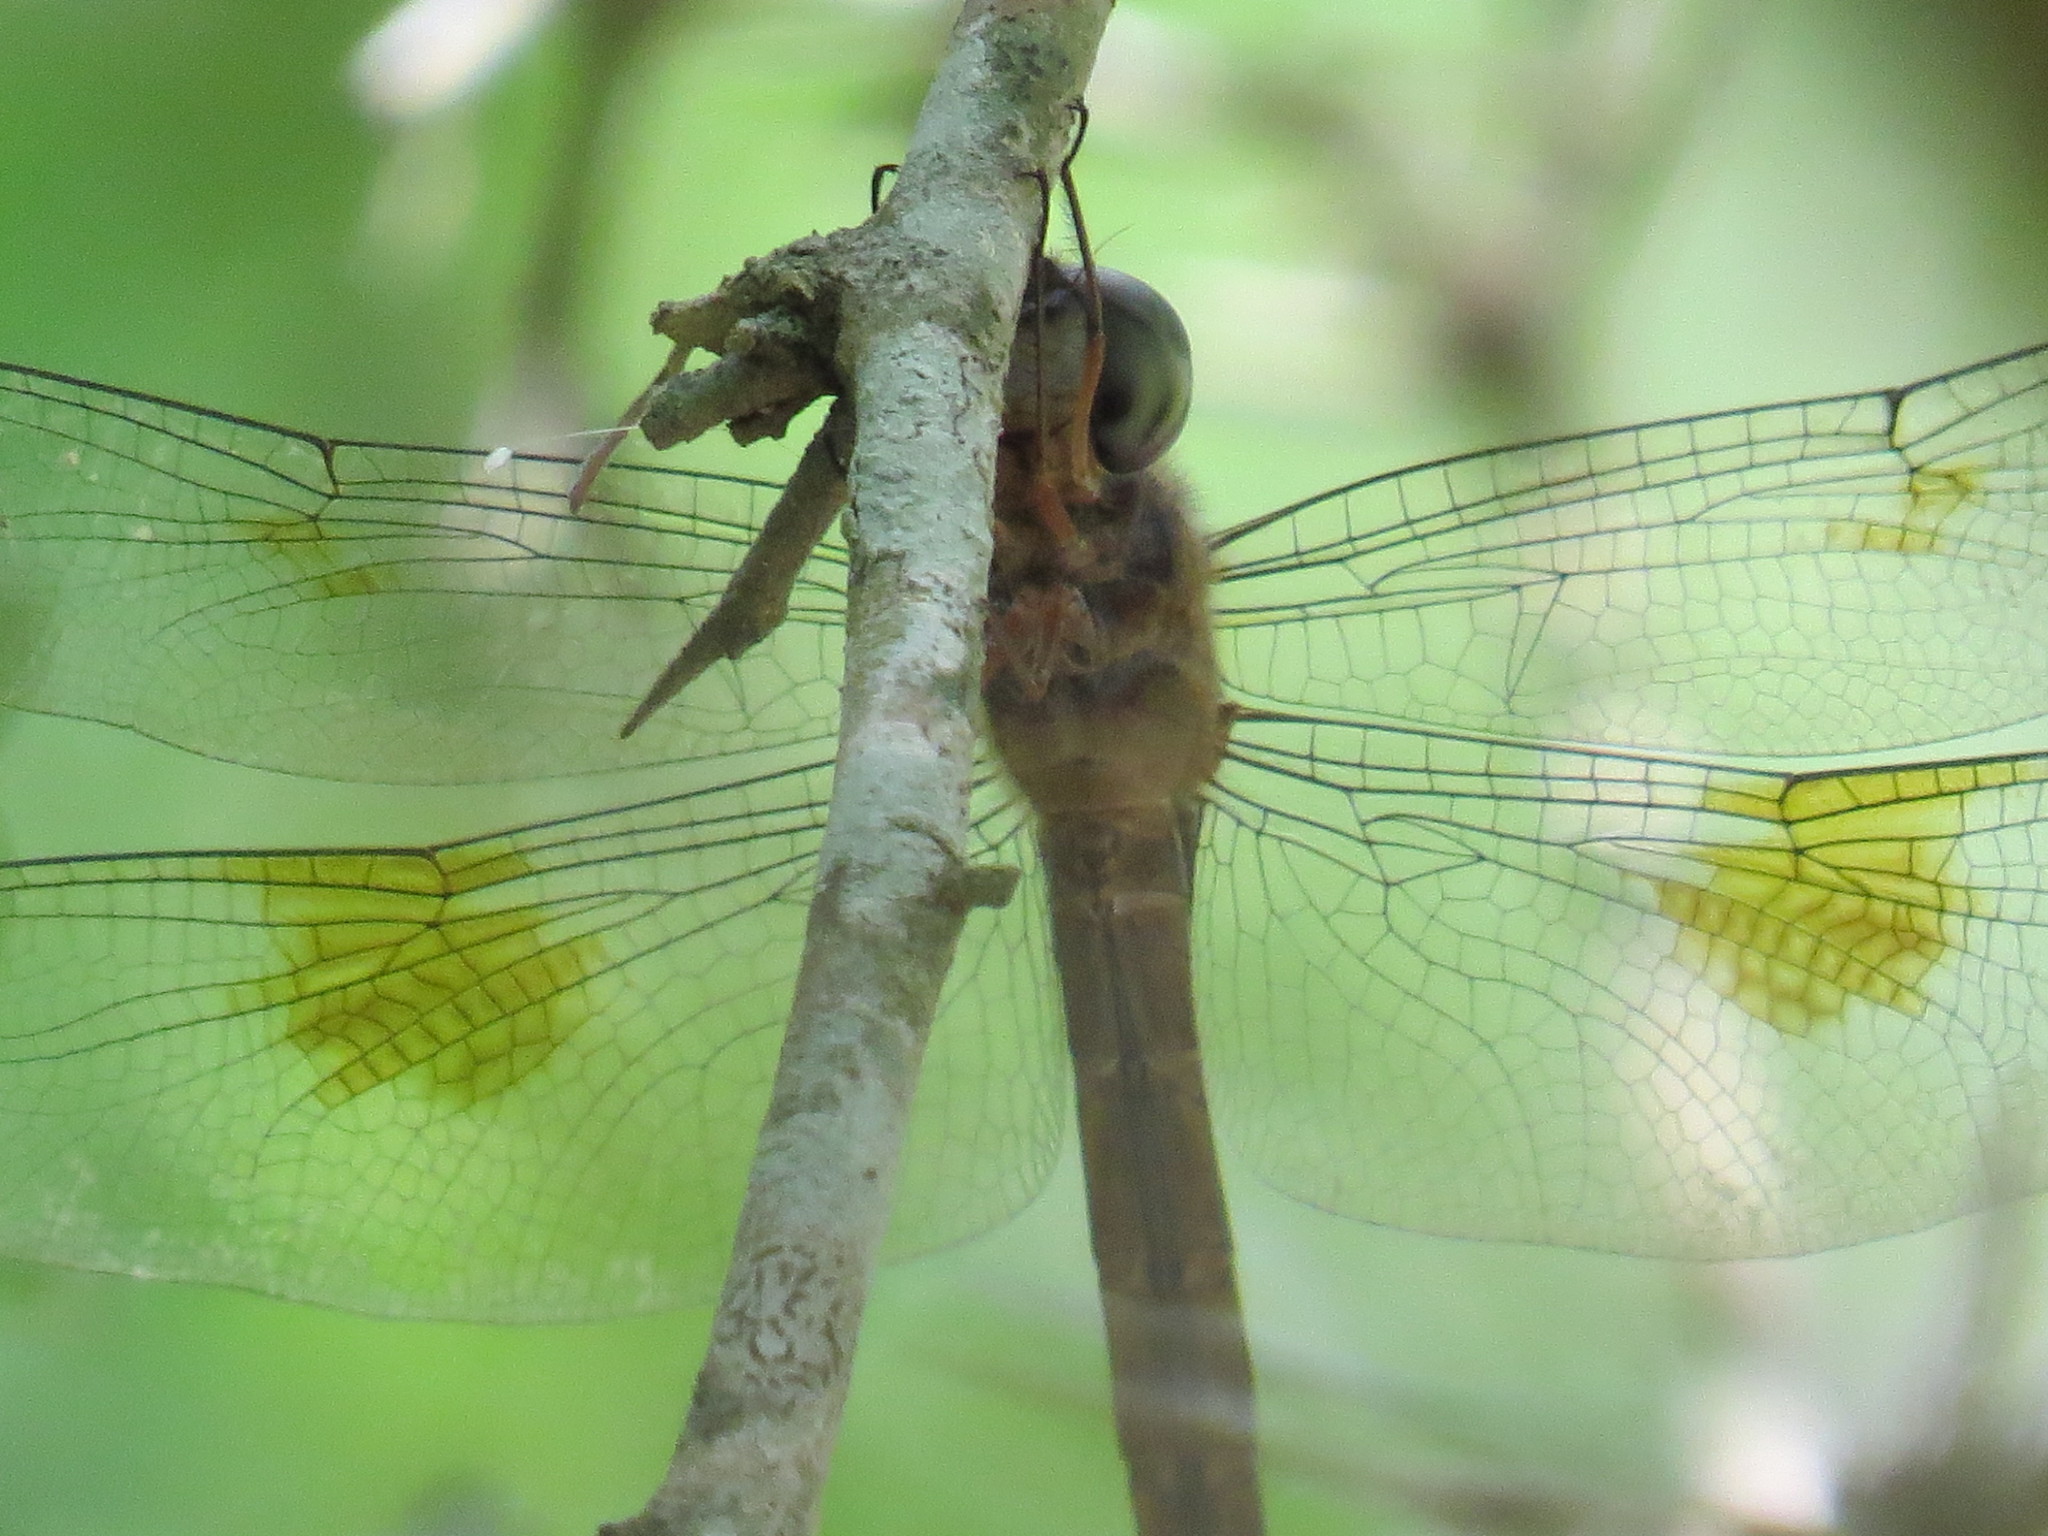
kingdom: Animalia
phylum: Arthropoda
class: Insecta
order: Odonata
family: Libellulidae
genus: Tholymis
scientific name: Tholymis citrina
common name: Evening skimmer
